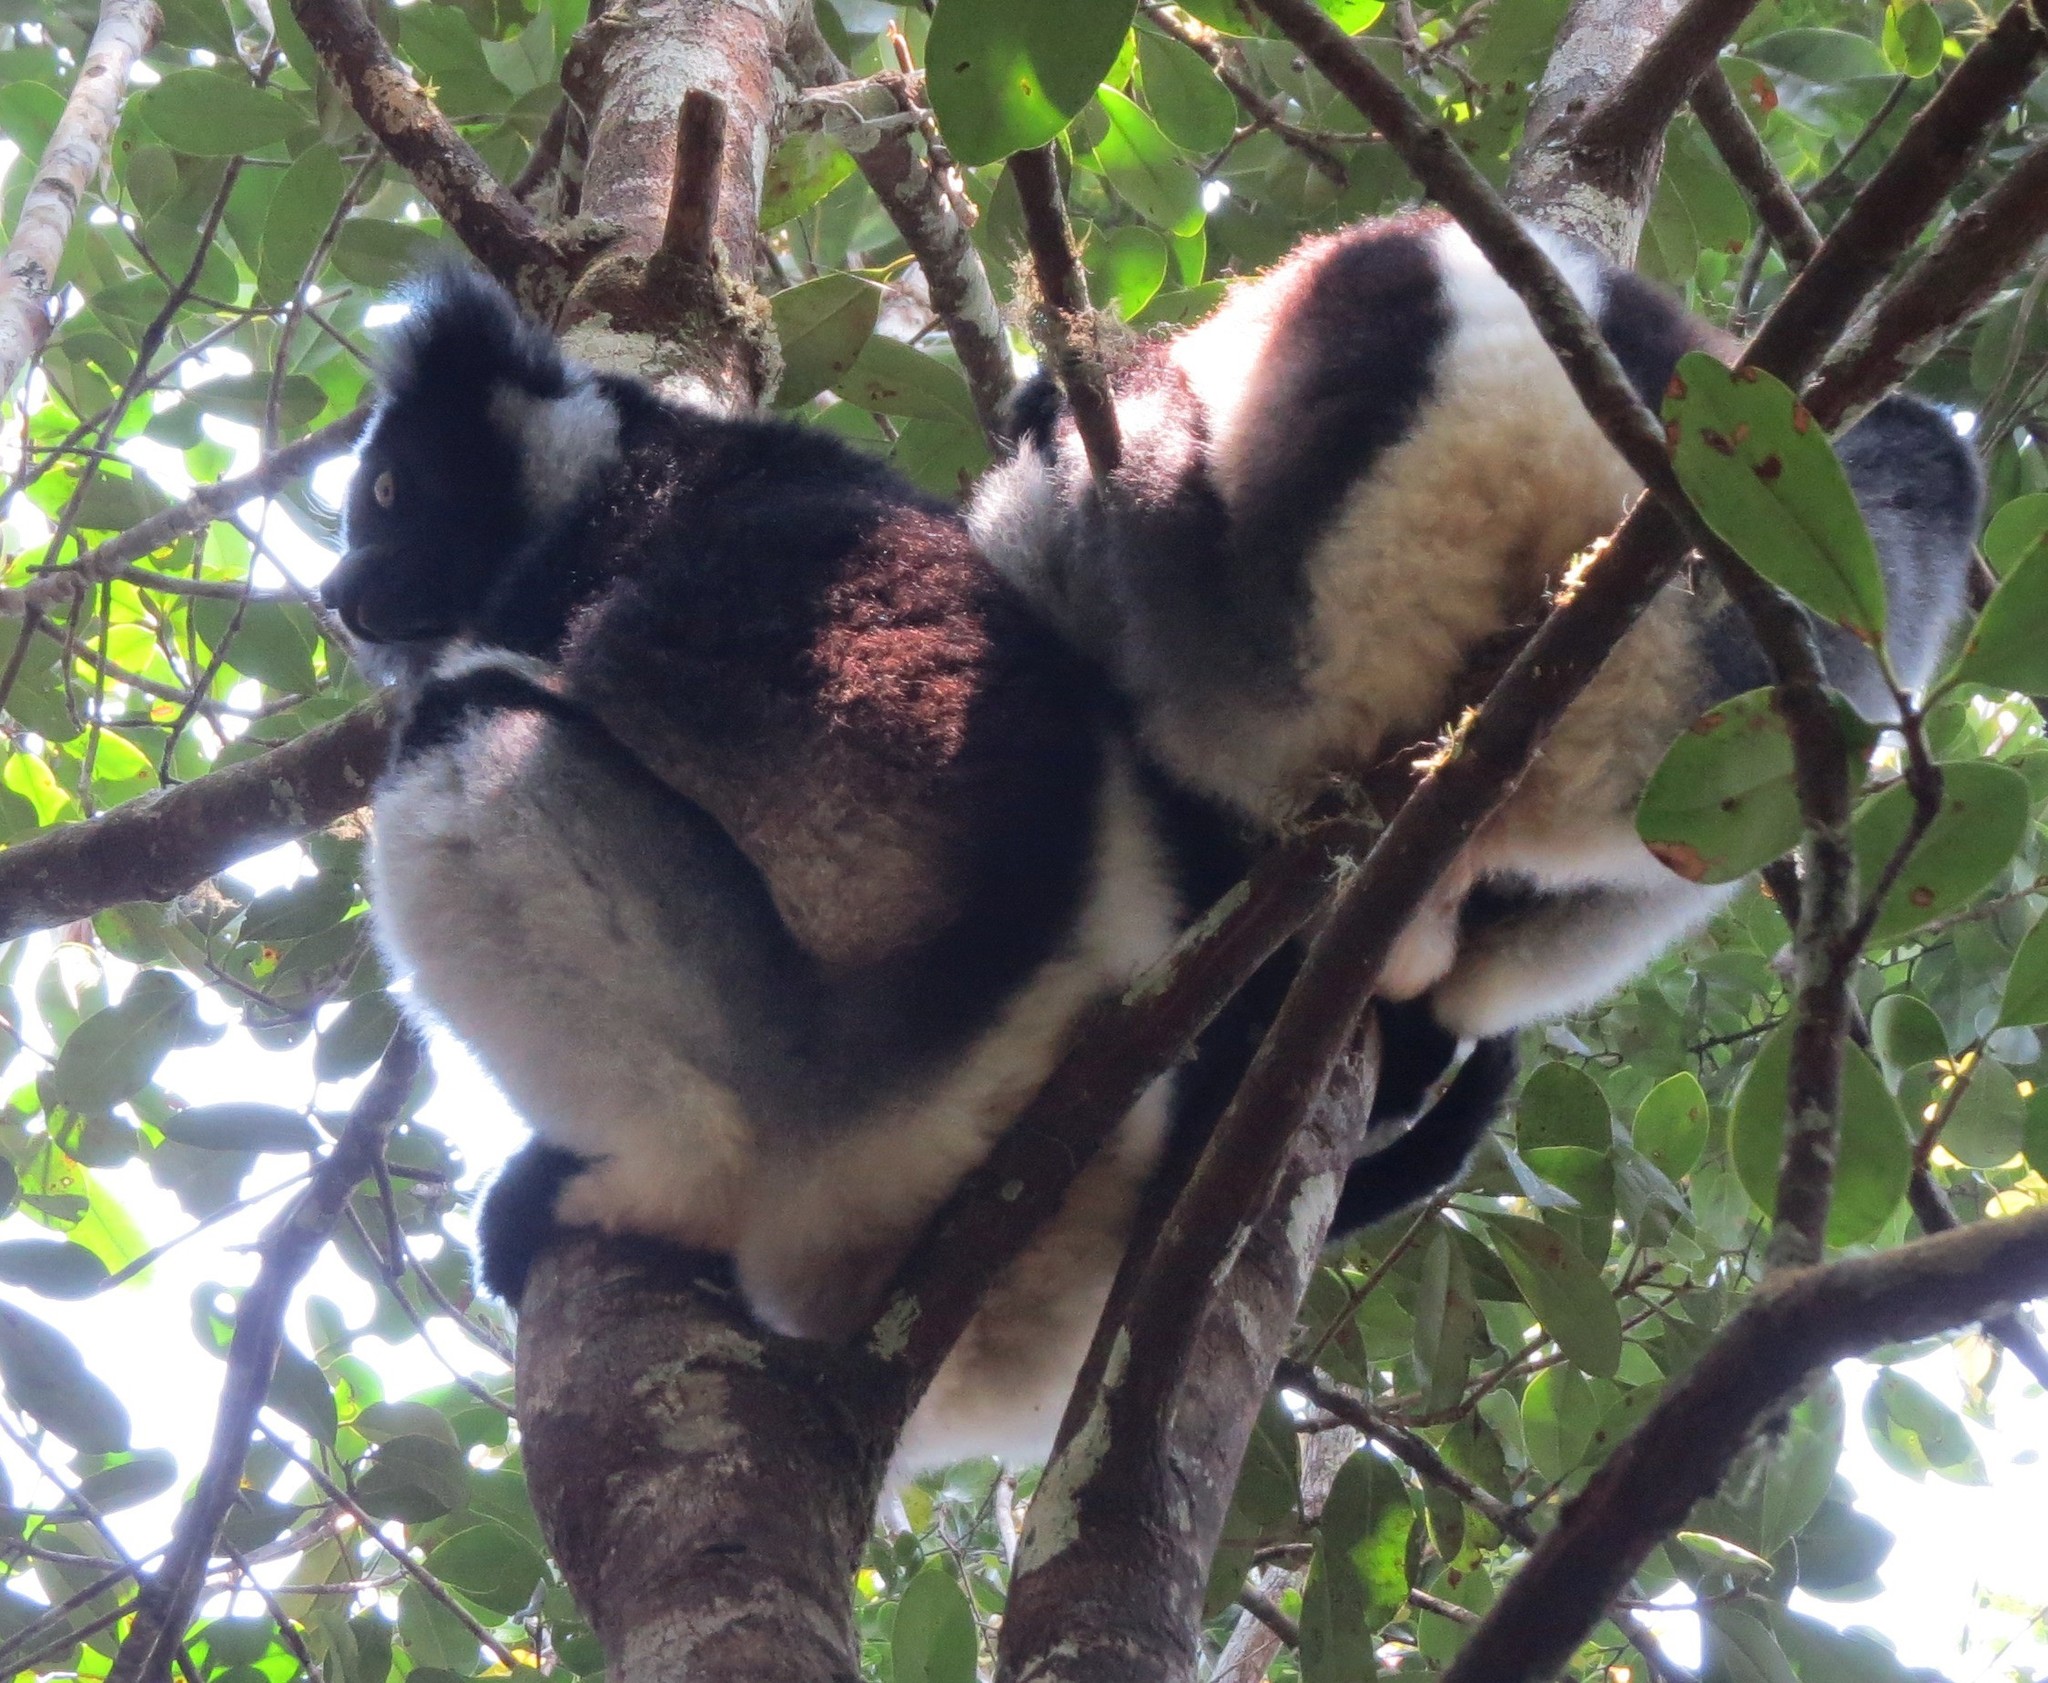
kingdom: Animalia
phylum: Chordata
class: Mammalia
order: Primates
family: Indriidae
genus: Indri
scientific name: Indri indri
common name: Indri
